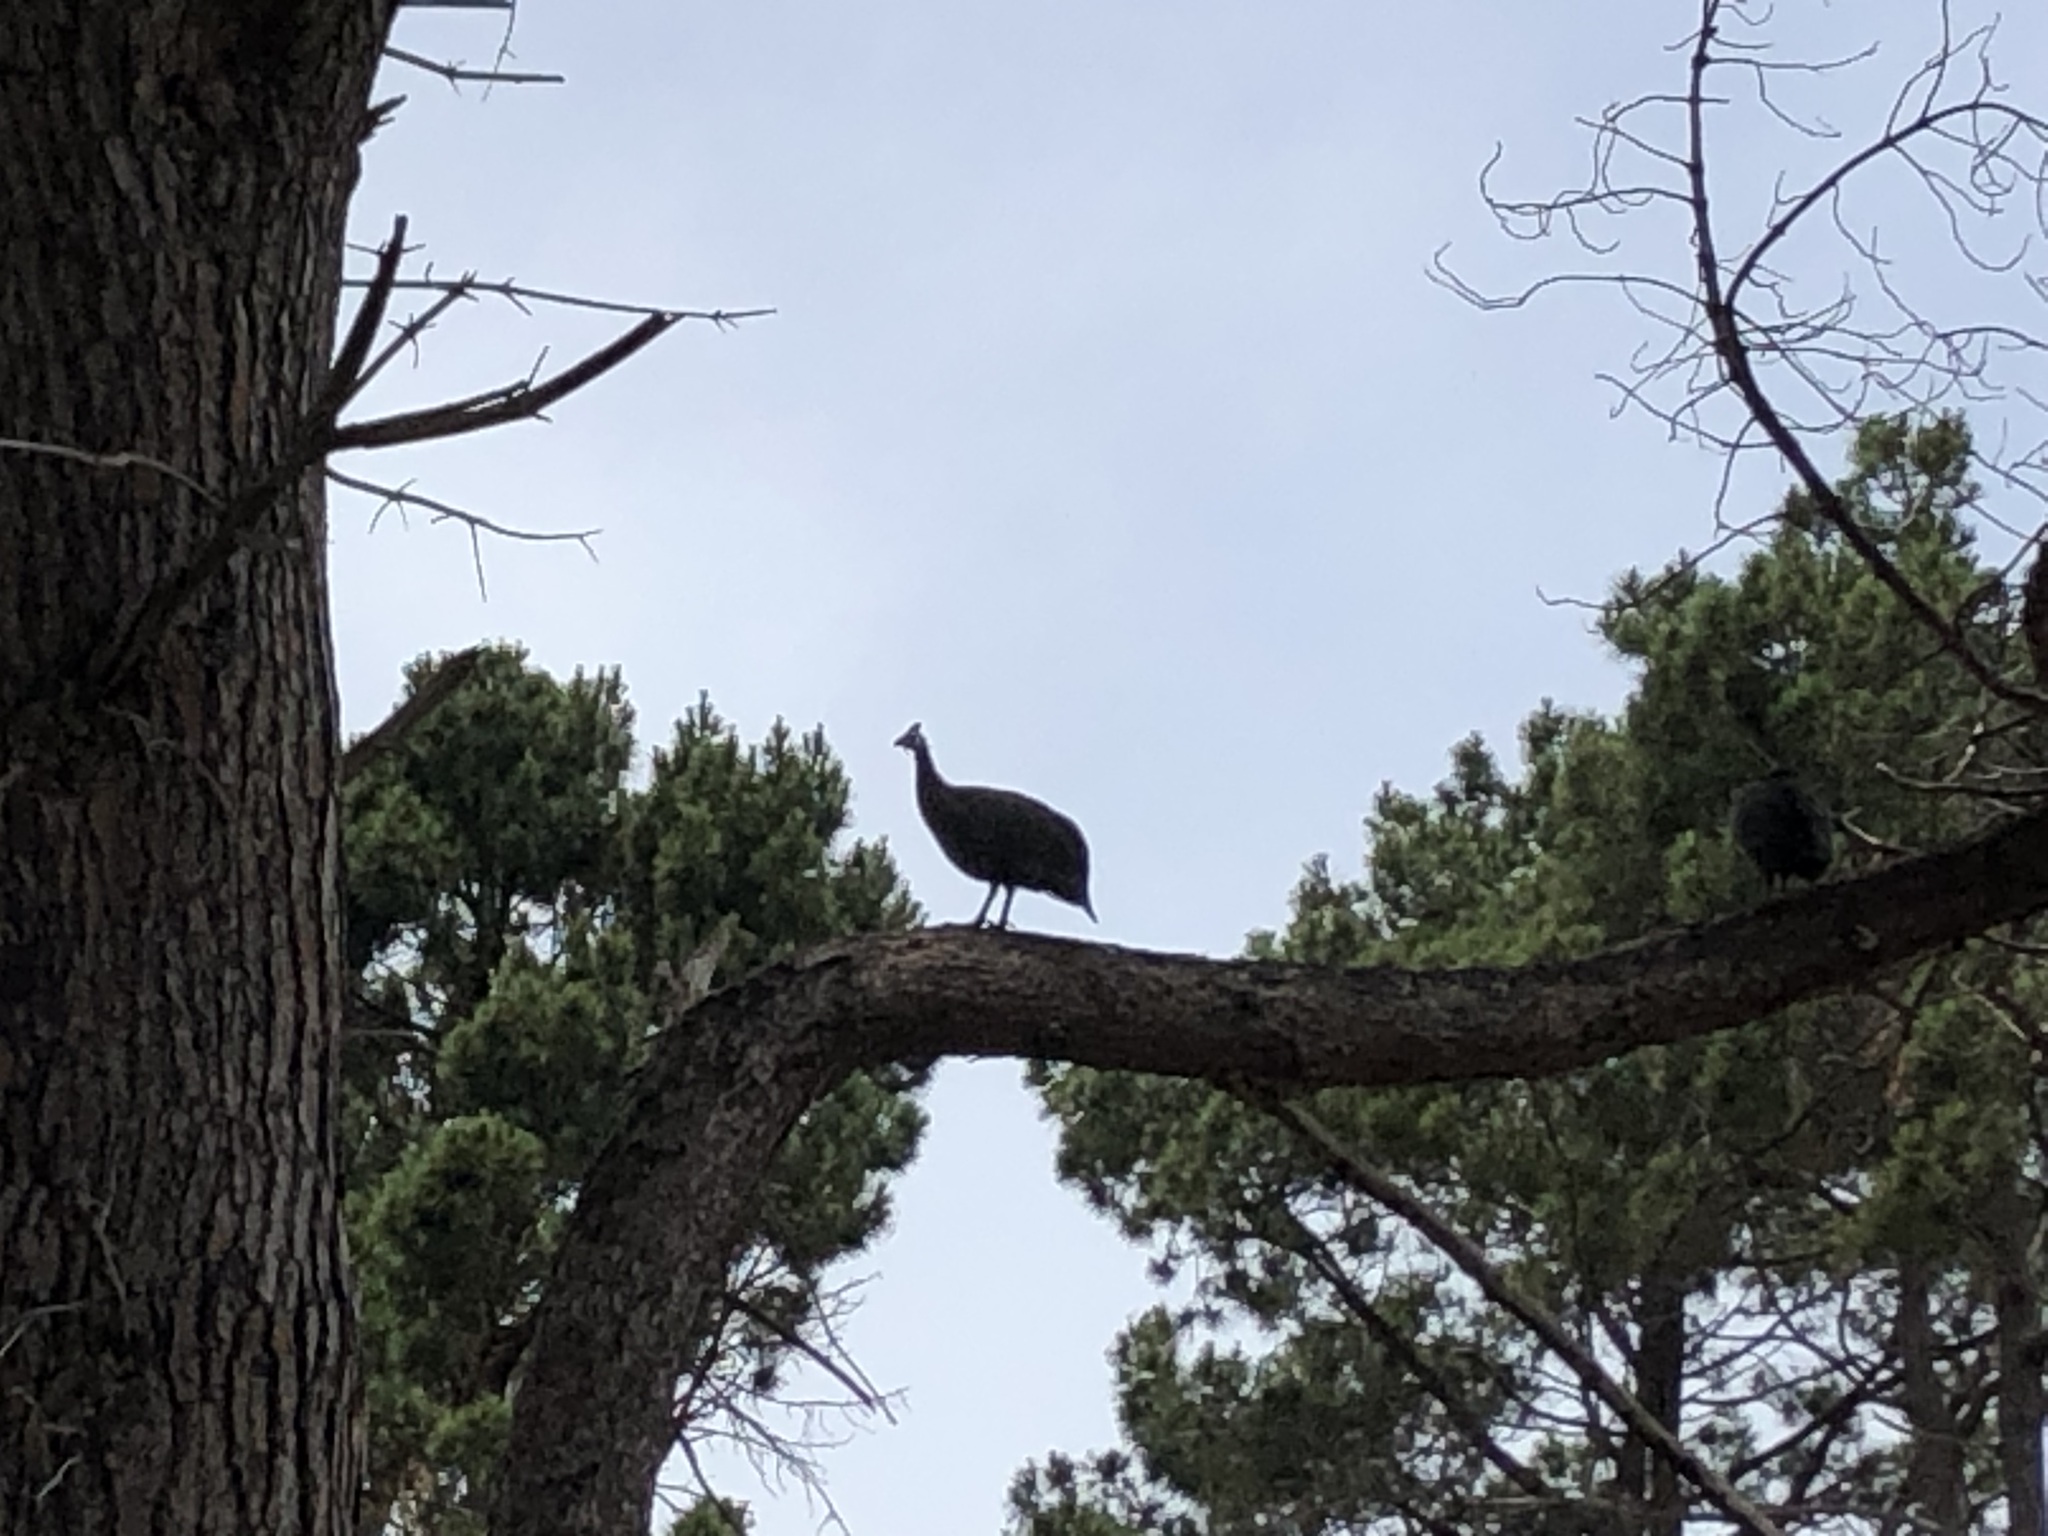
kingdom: Animalia
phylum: Chordata
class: Aves
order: Galliformes
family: Numididae
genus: Numida
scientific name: Numida meleagris
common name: Helmeted guineafowl
